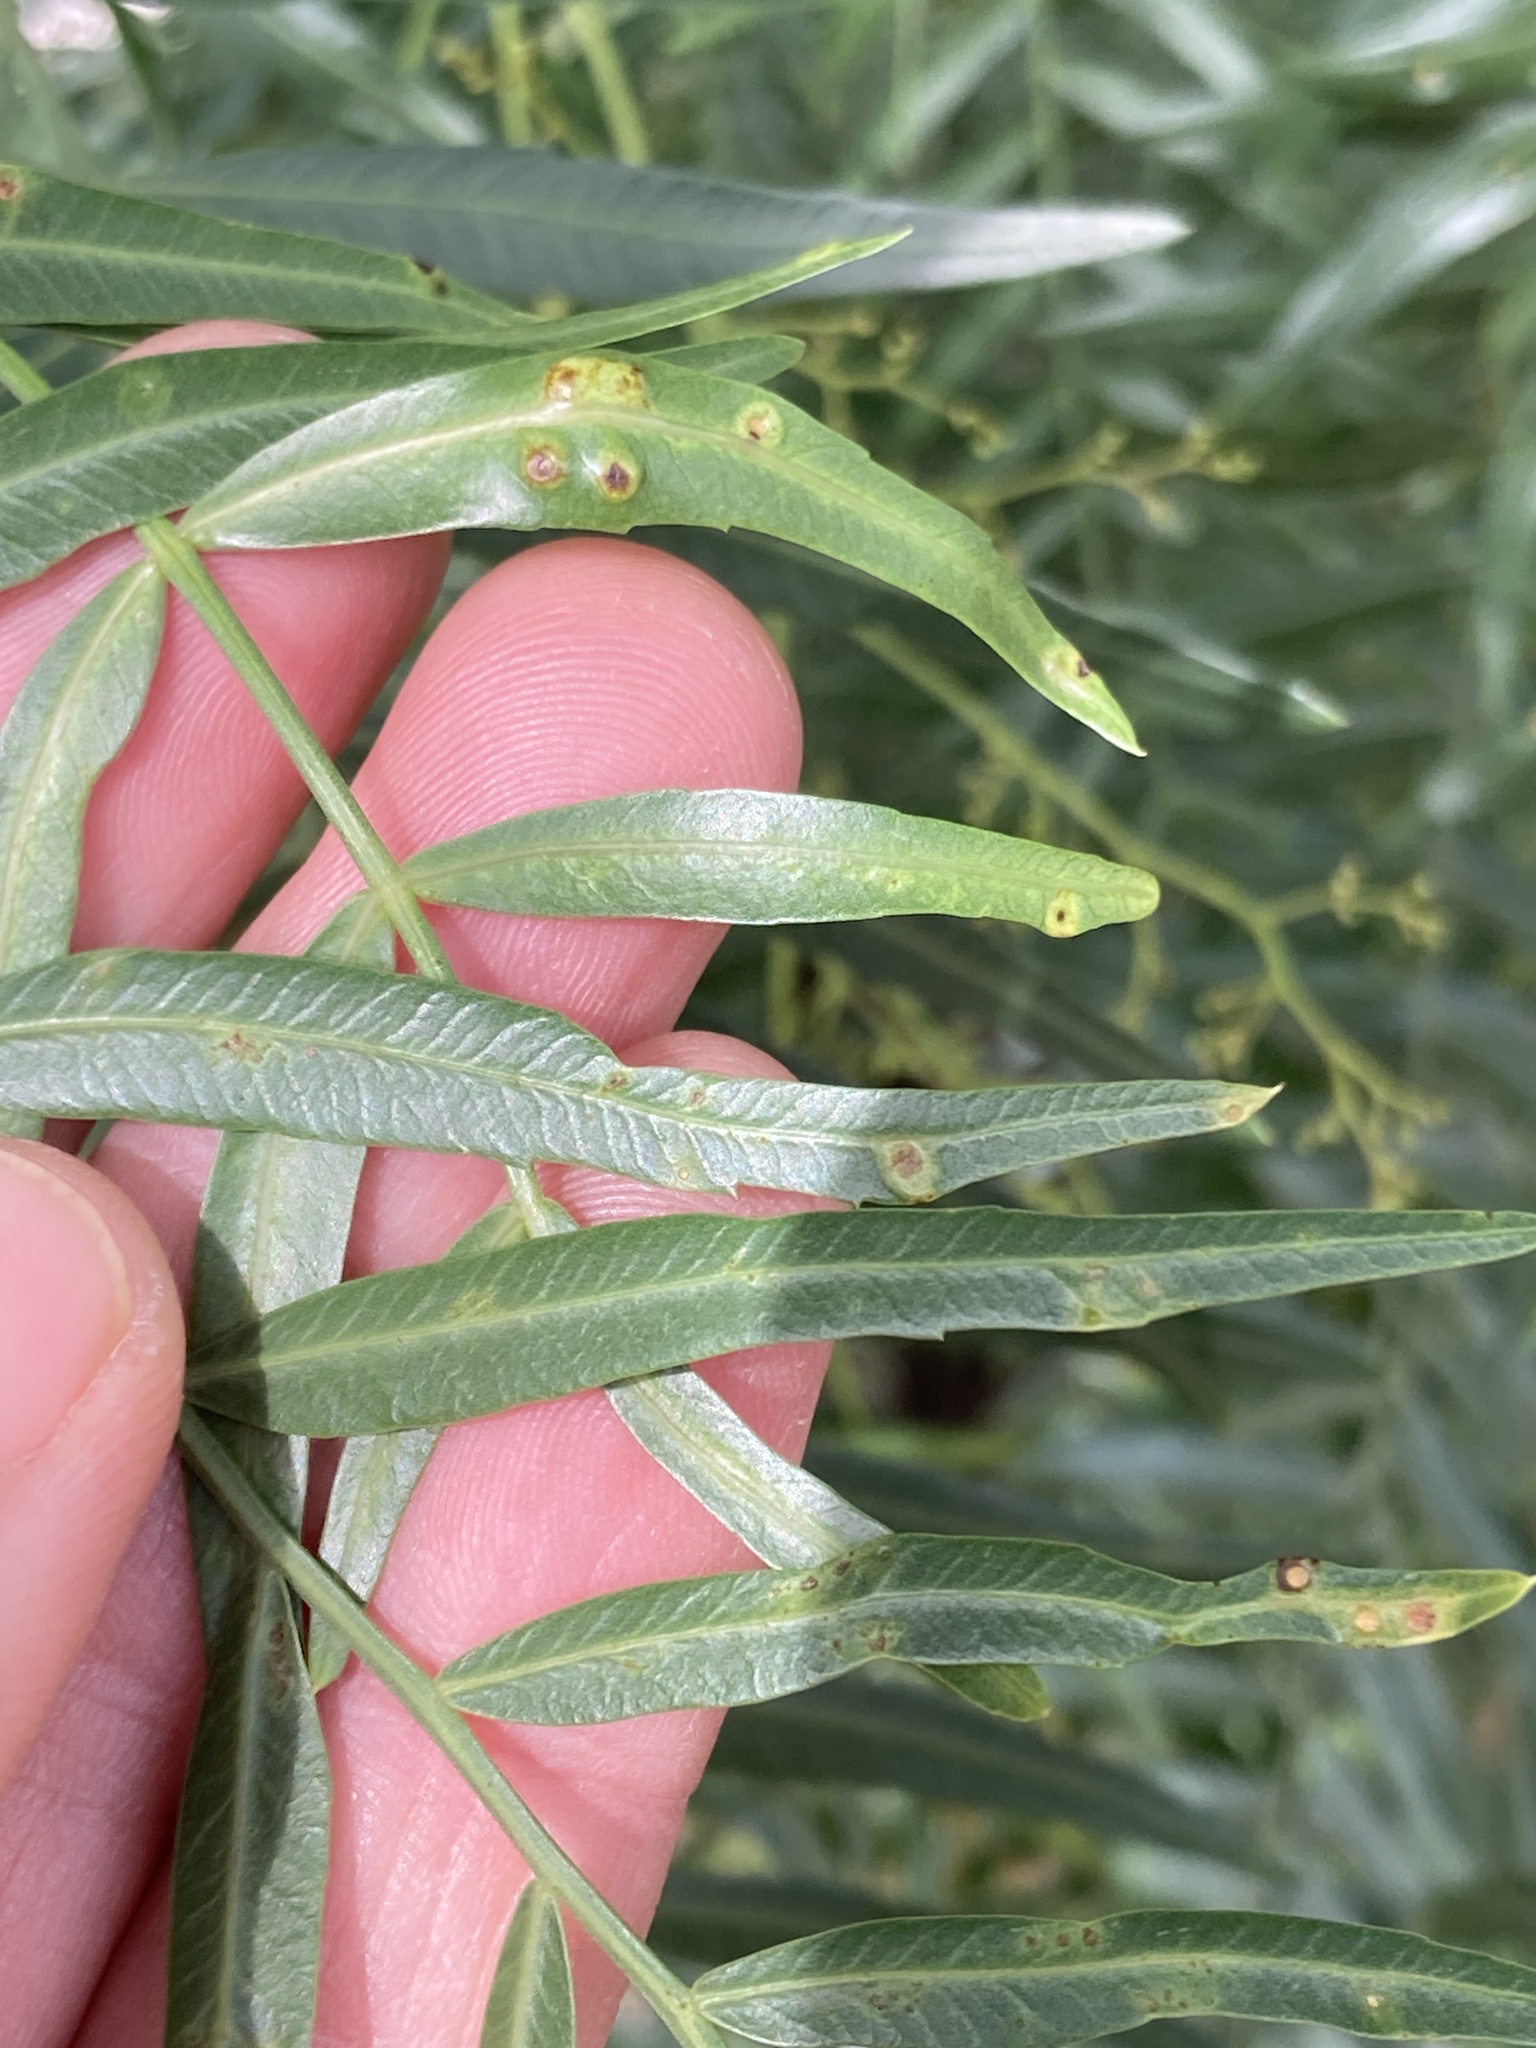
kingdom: Animalia
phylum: Arthropoda
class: Insecta
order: Hemiptera
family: Calophyidae
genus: Calophya
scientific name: Calophya schini
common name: Pepper tree psyllid
